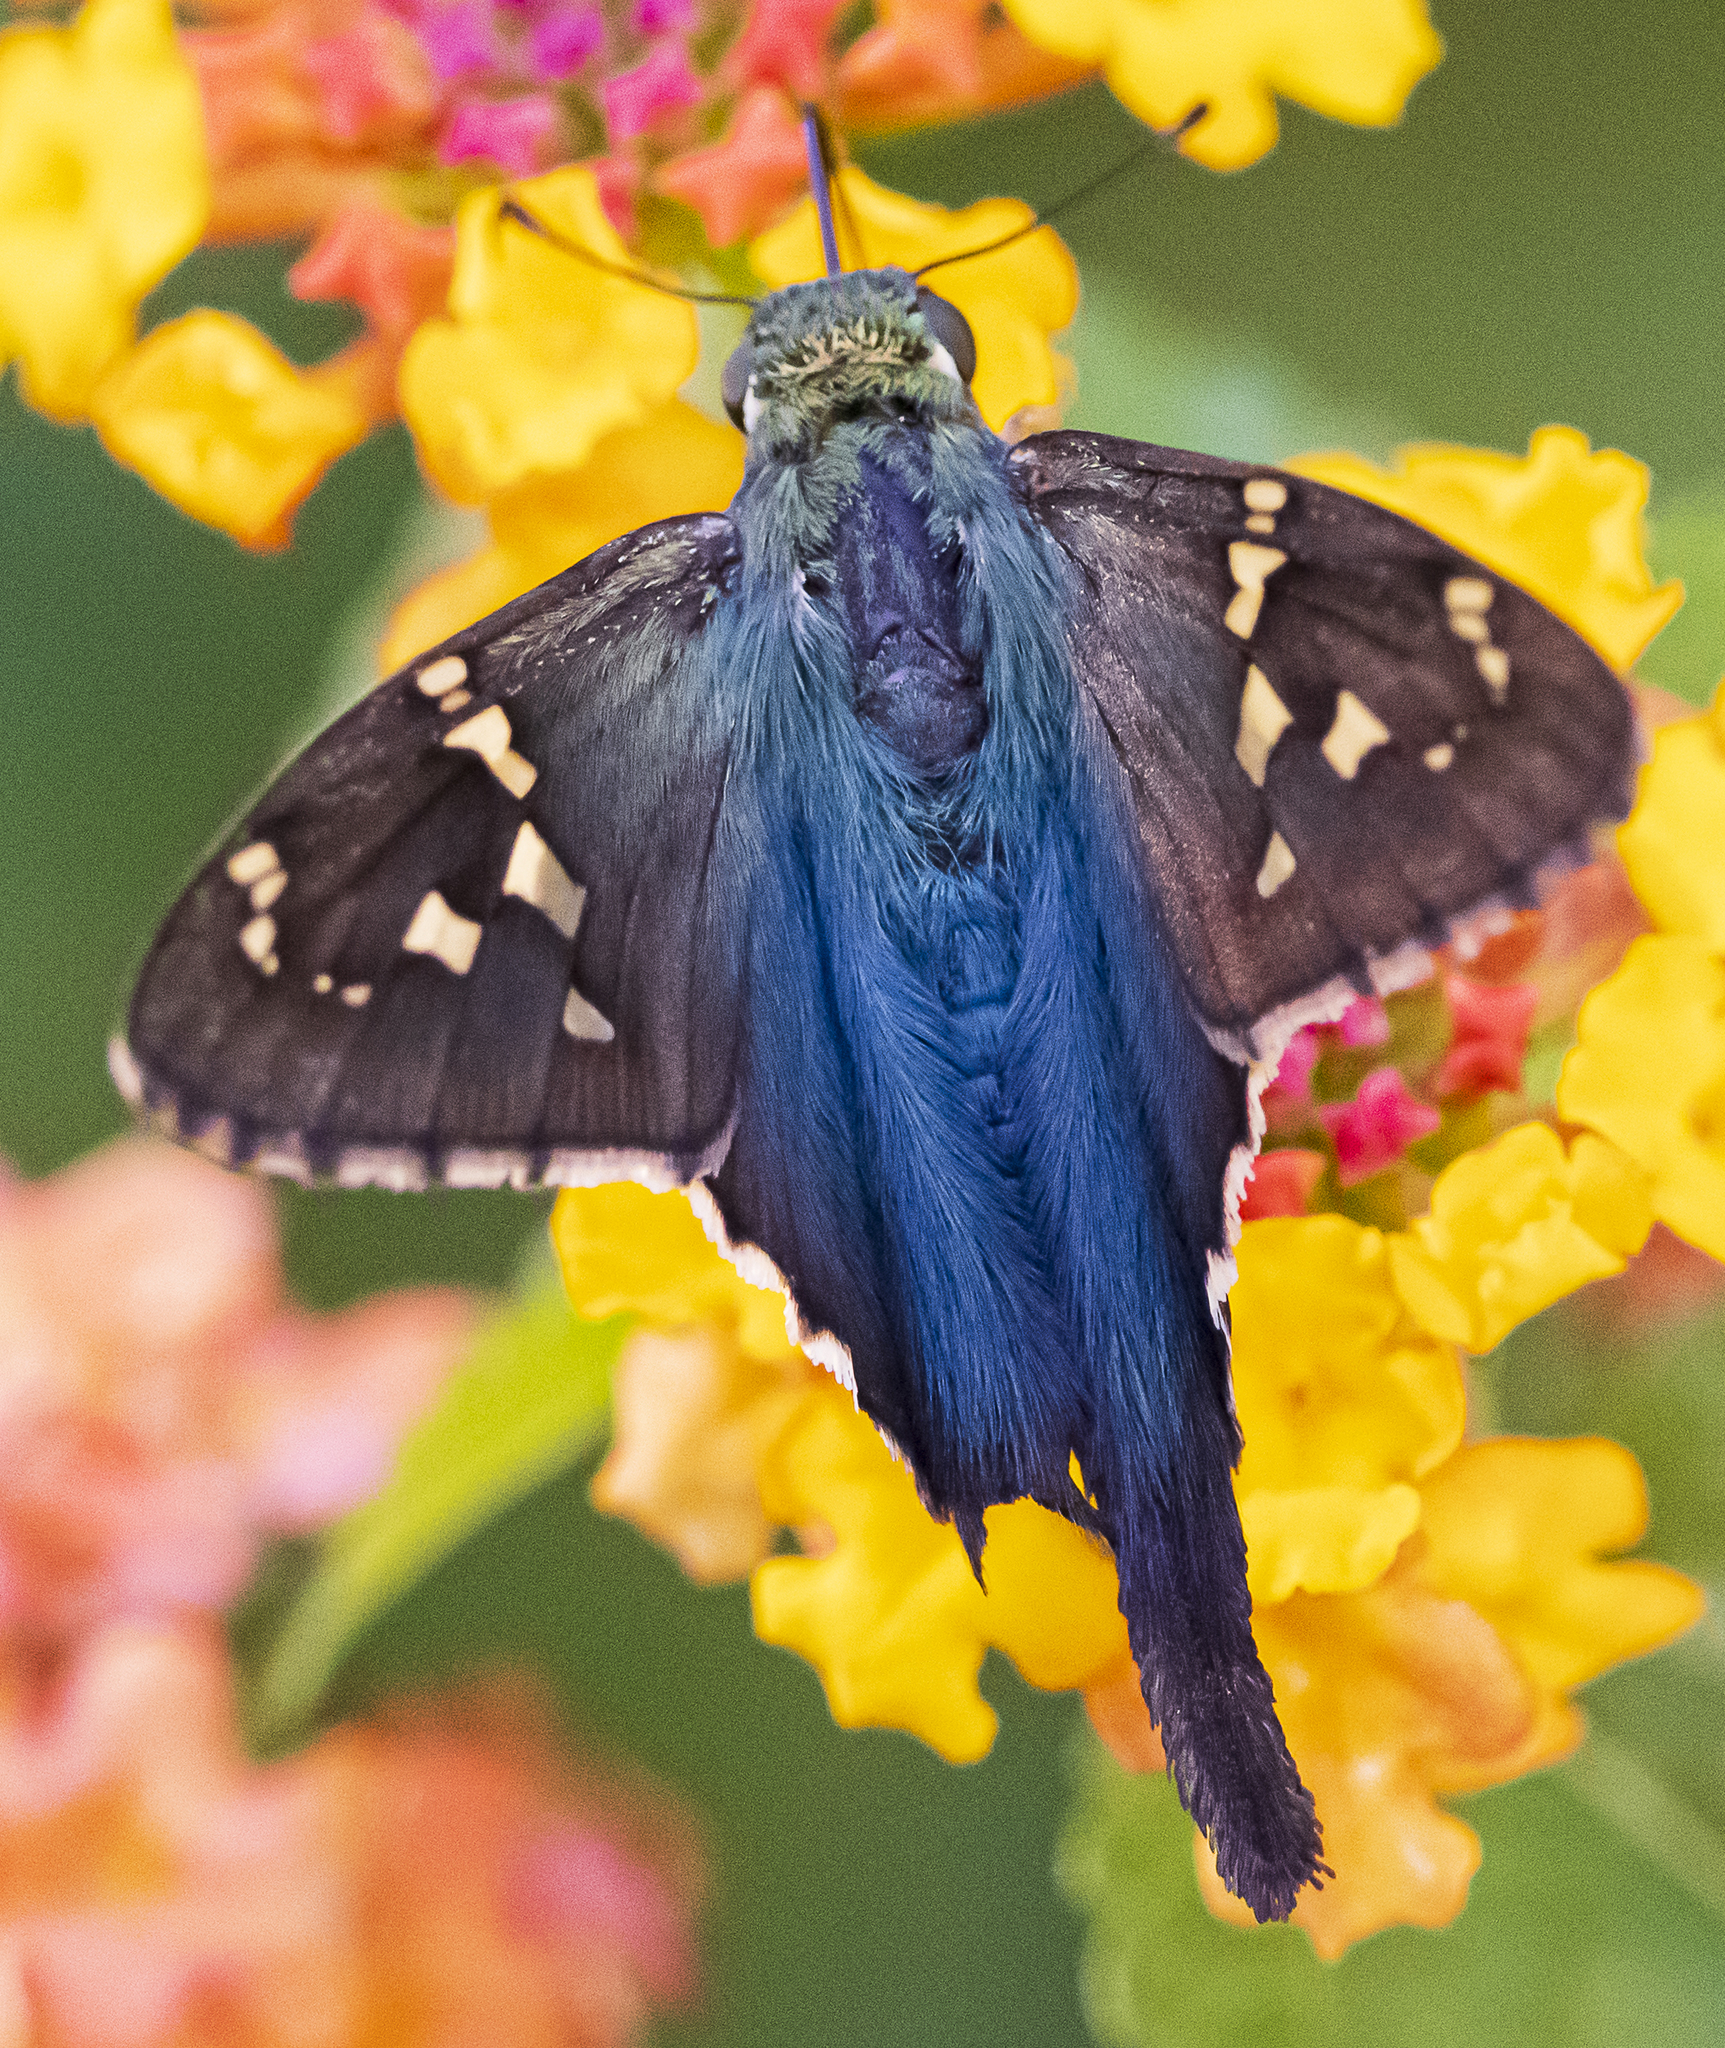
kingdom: Animalia
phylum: Arthropoda
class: Insecta
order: Lepidoptera
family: Hesperiidae
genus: Urbanus
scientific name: Urbanus proteus
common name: Long-tailed skipper
